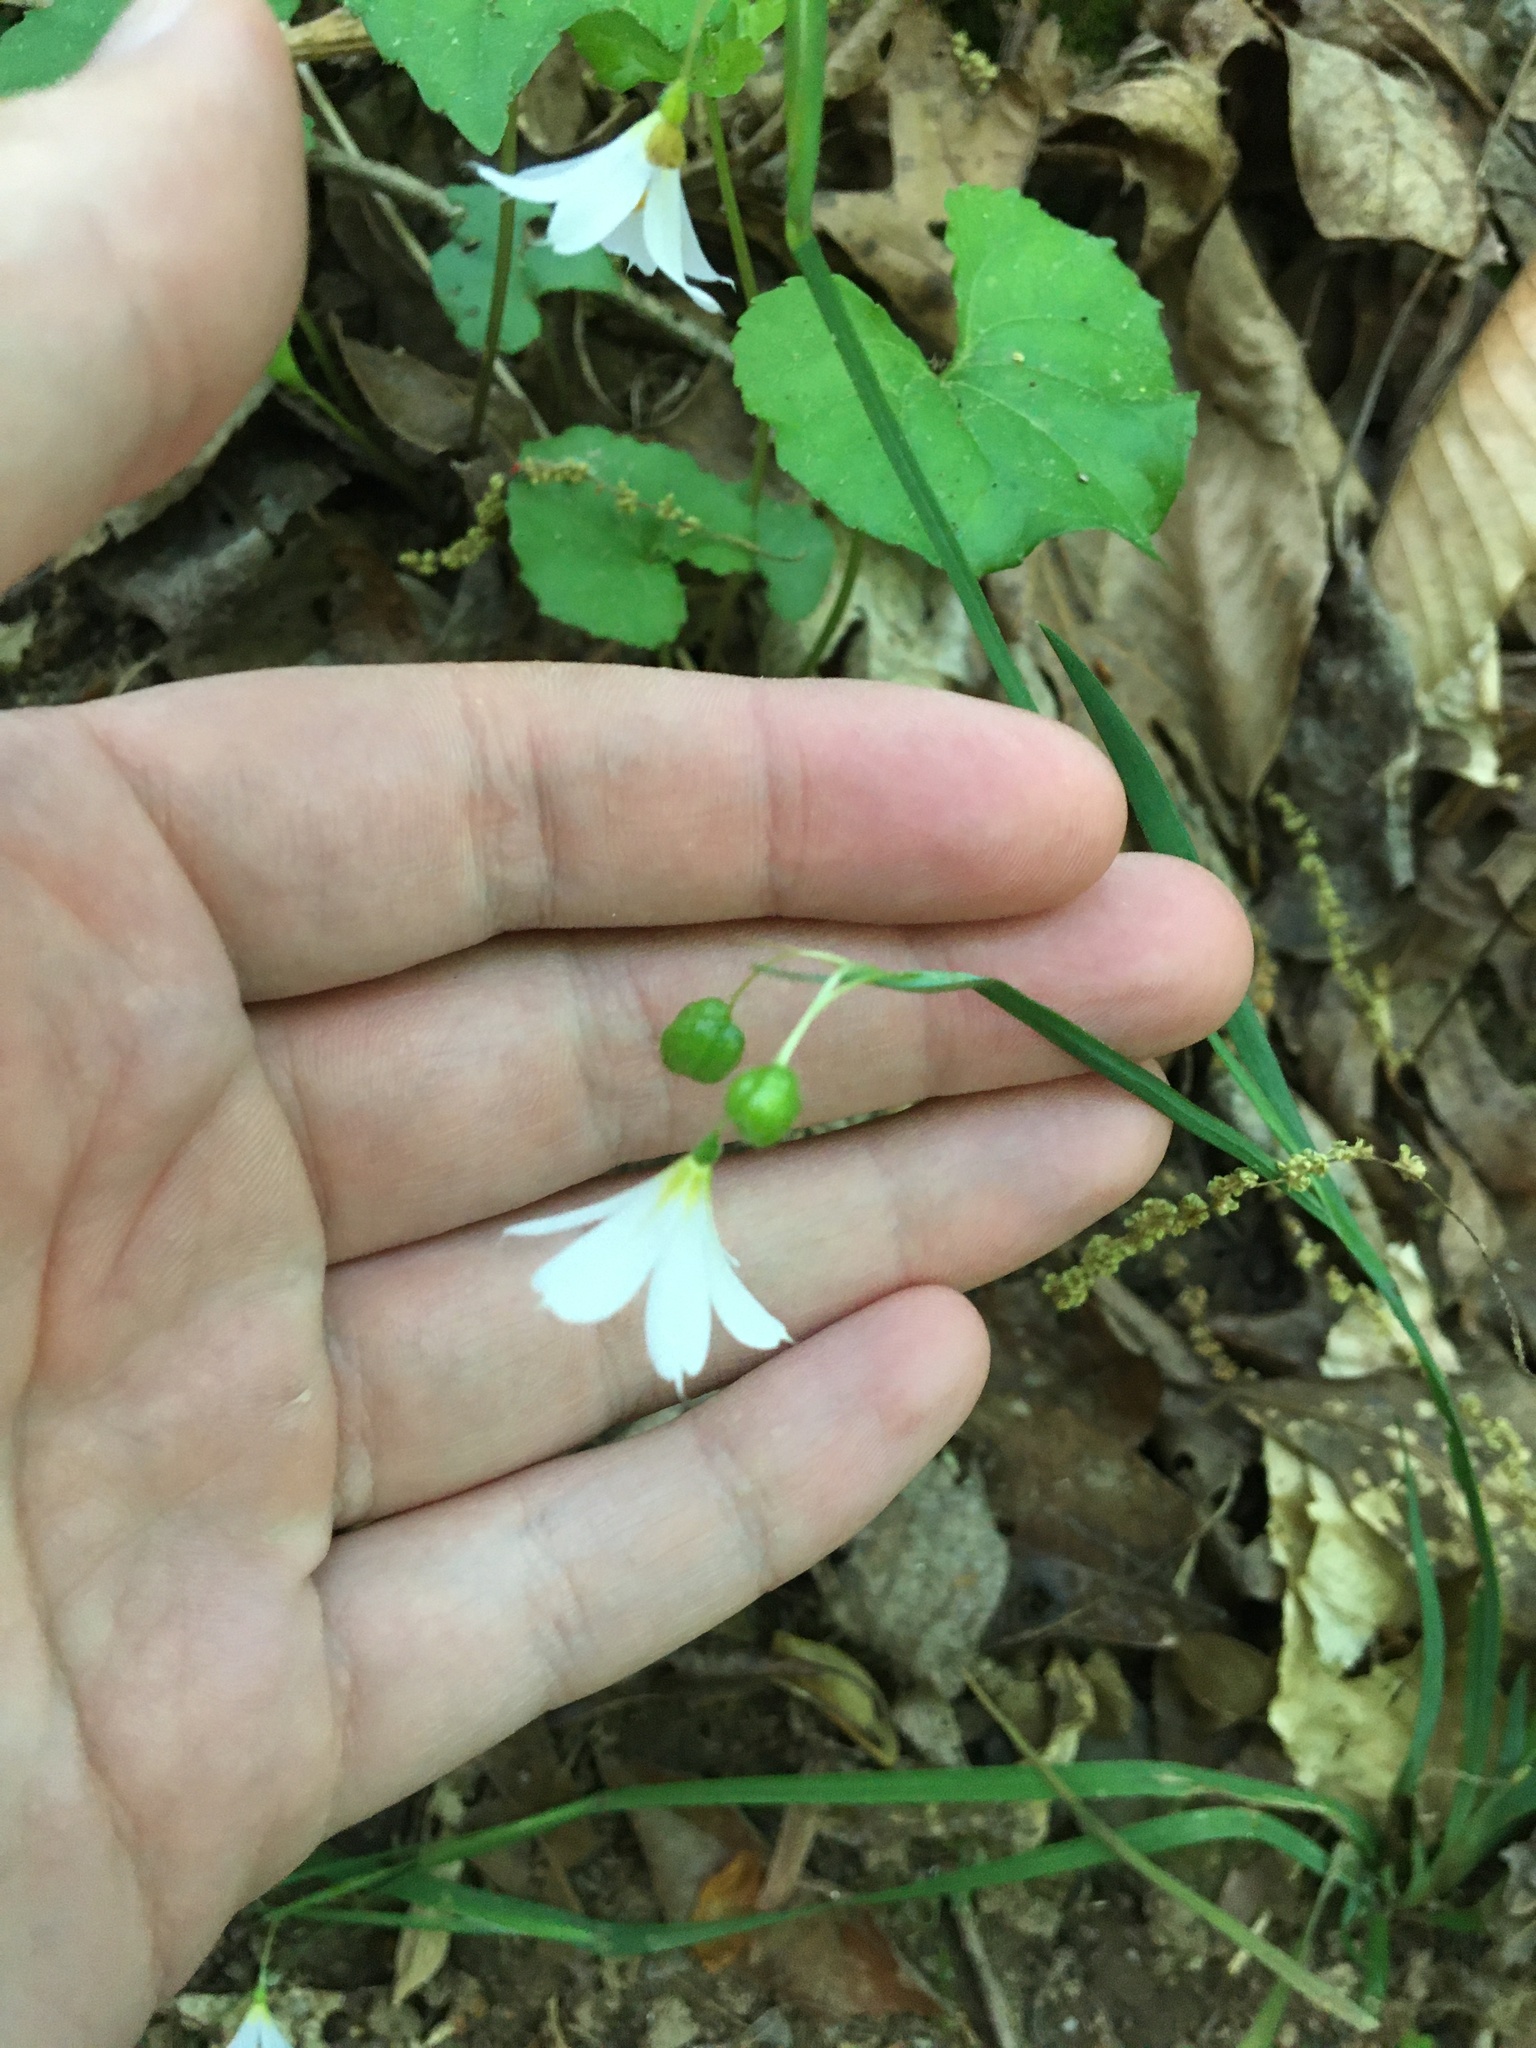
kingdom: Plantae
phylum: Tracheophyta
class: Liliopsida
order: Asparagales
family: Iridaceae
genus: Sisyrinchium
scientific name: Sisyrinchium albidum
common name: Pale blue-eyed-grass
